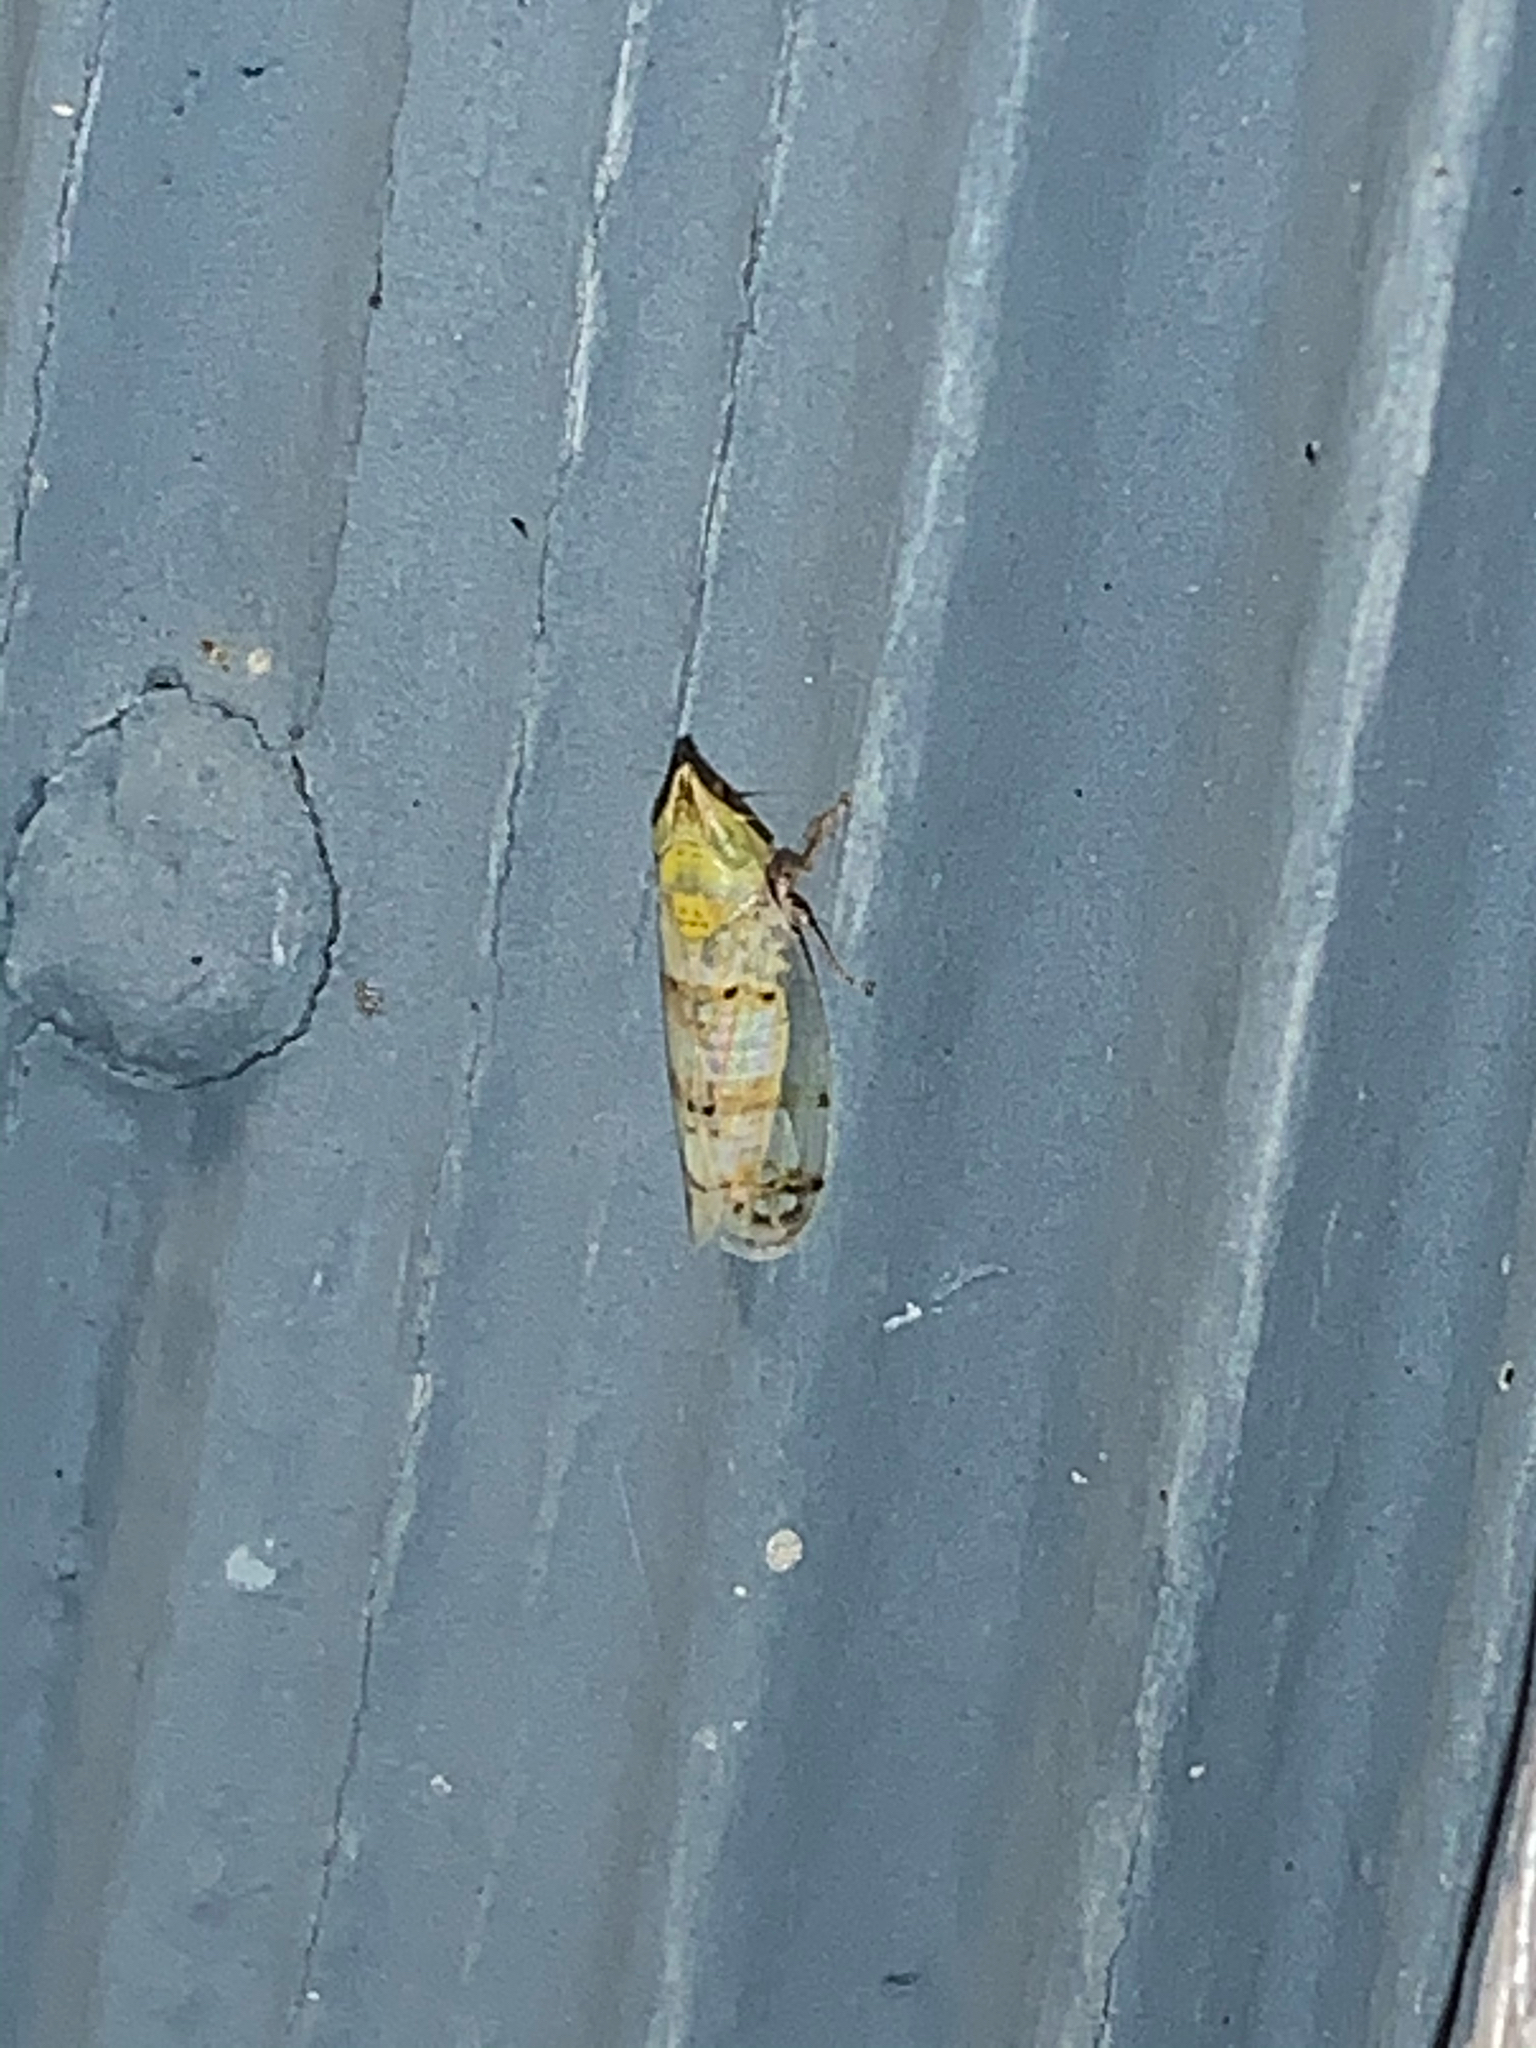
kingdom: Animalia
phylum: Arthropoda
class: Insecta
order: Hemiptera
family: Cicadellidae
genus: Japananus
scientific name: Japananus hyalinus
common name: The japanese maple leafhopper
